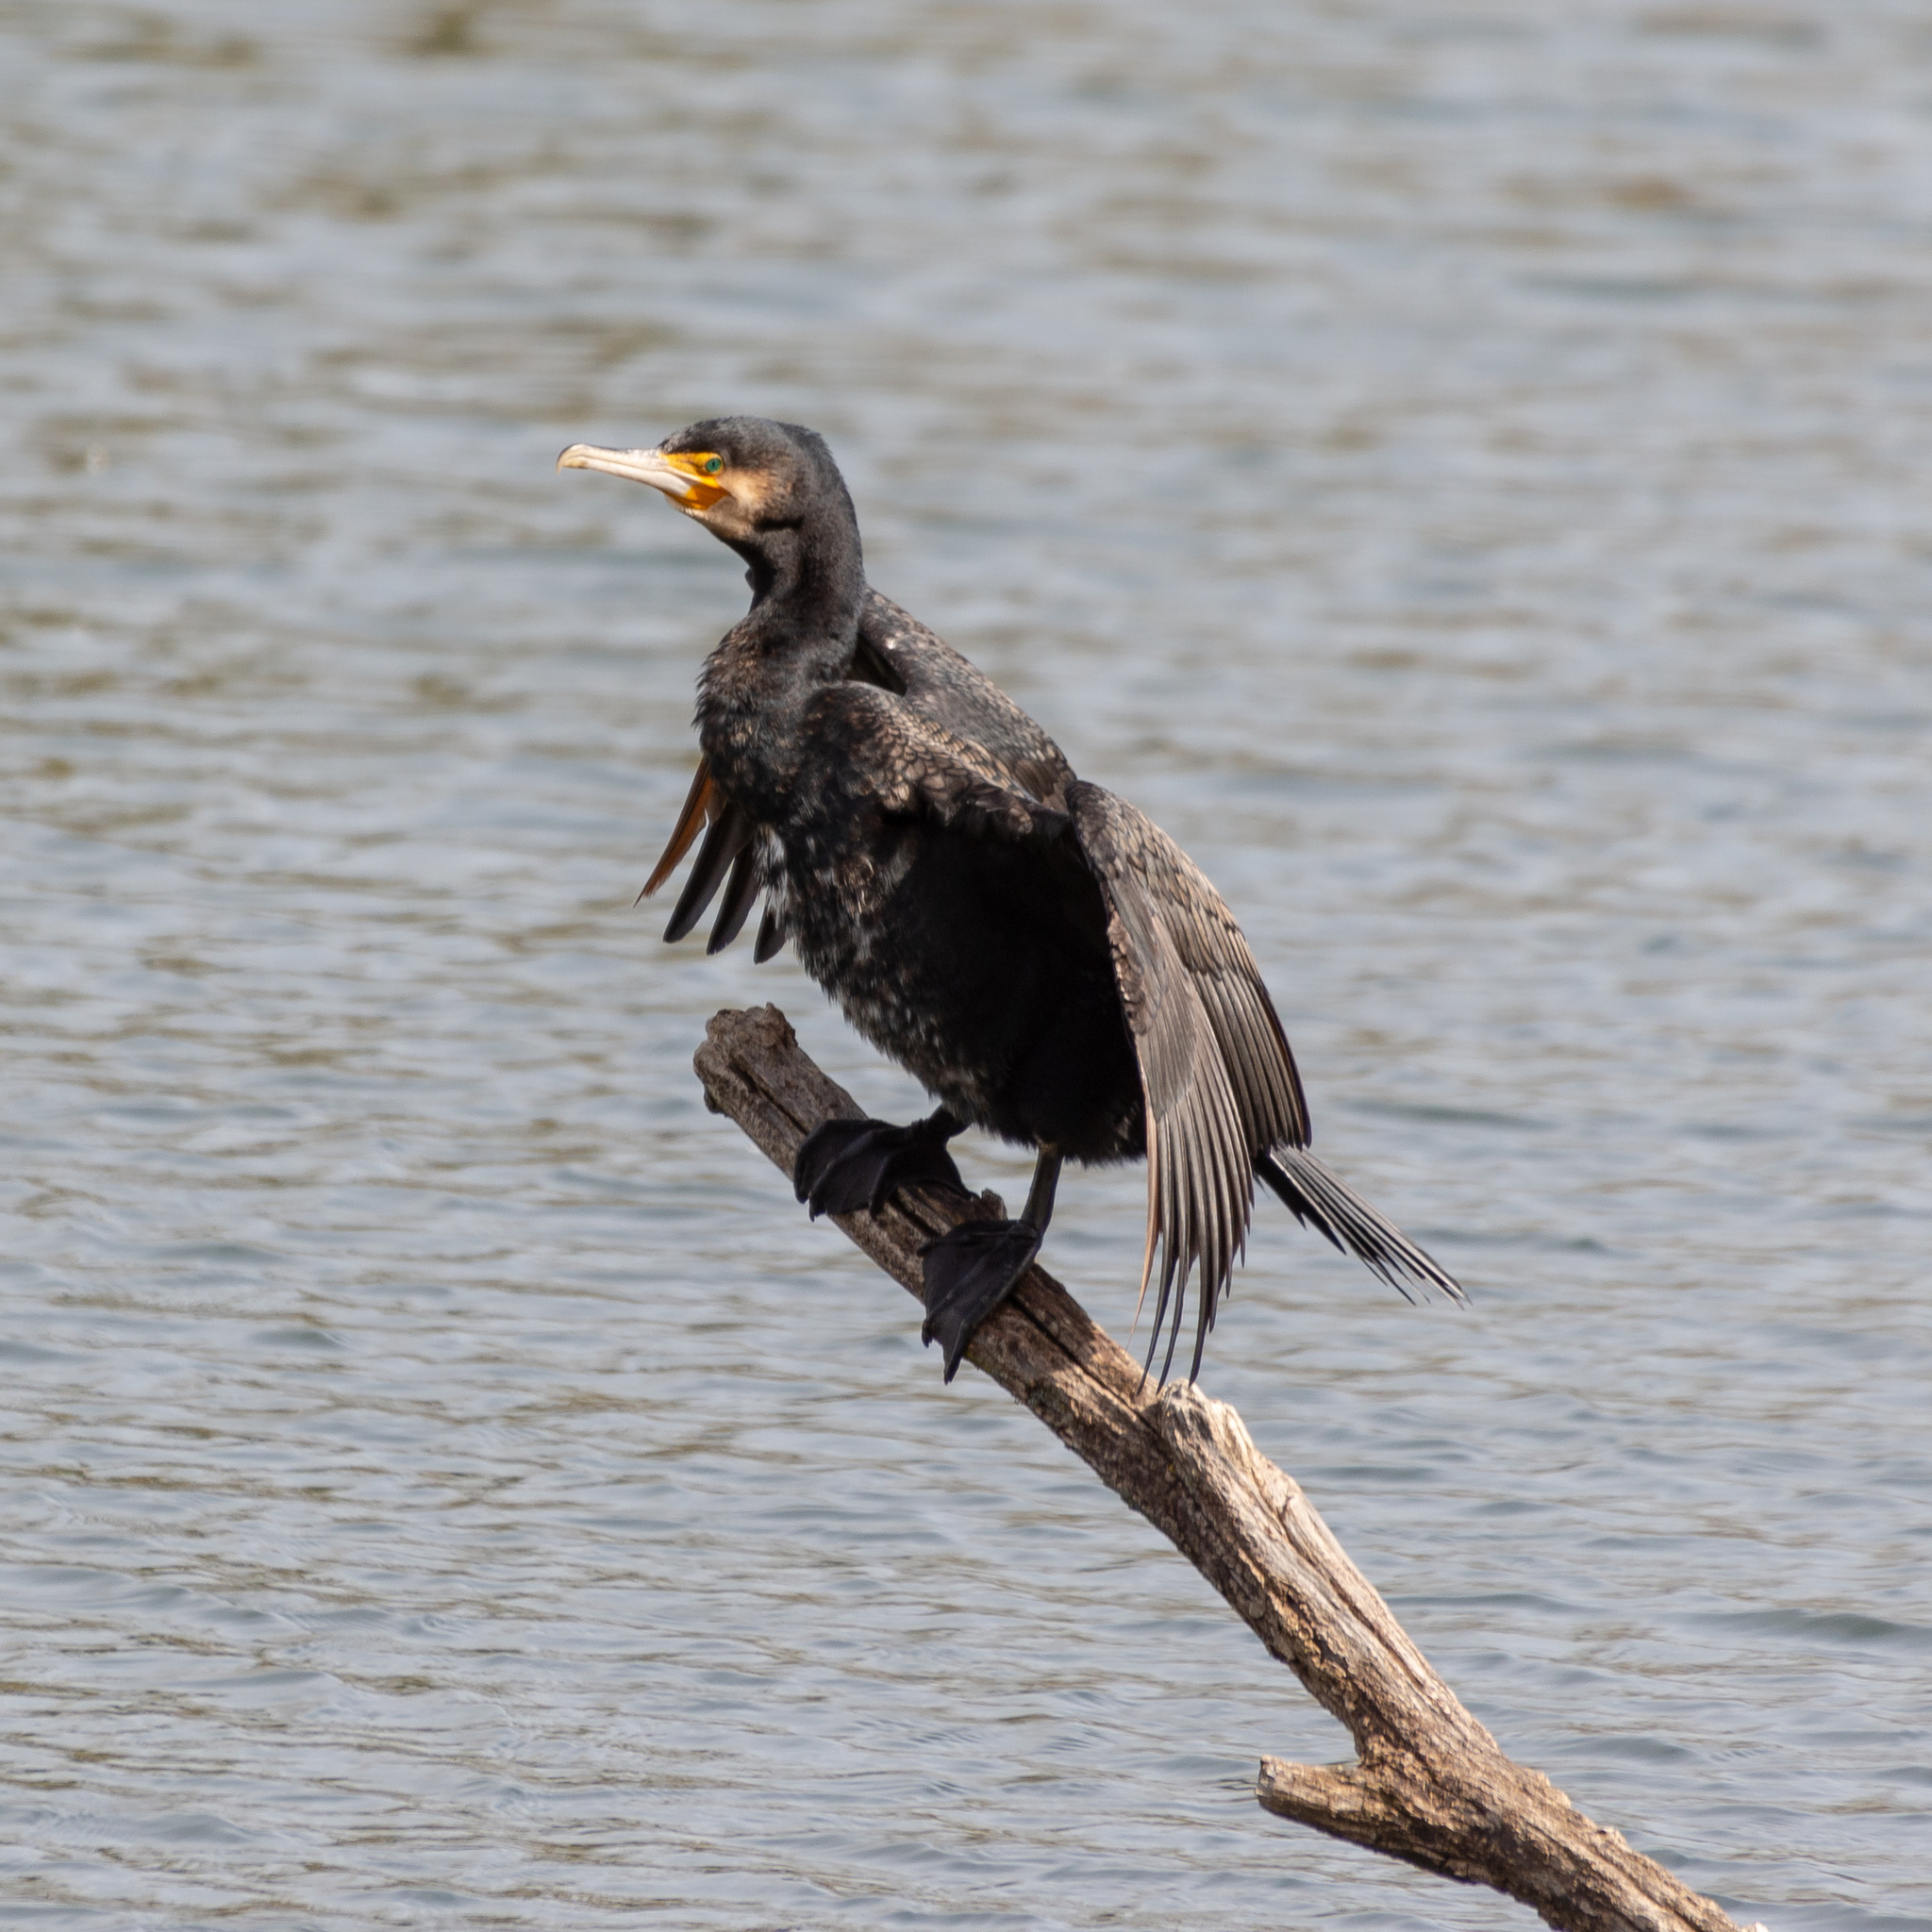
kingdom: Animalia
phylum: Chordata
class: Aves
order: Suliformes
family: Phalacrocoracidae
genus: Phalacrocorax
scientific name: Phalacrocorax carbo
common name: Great cormorant
